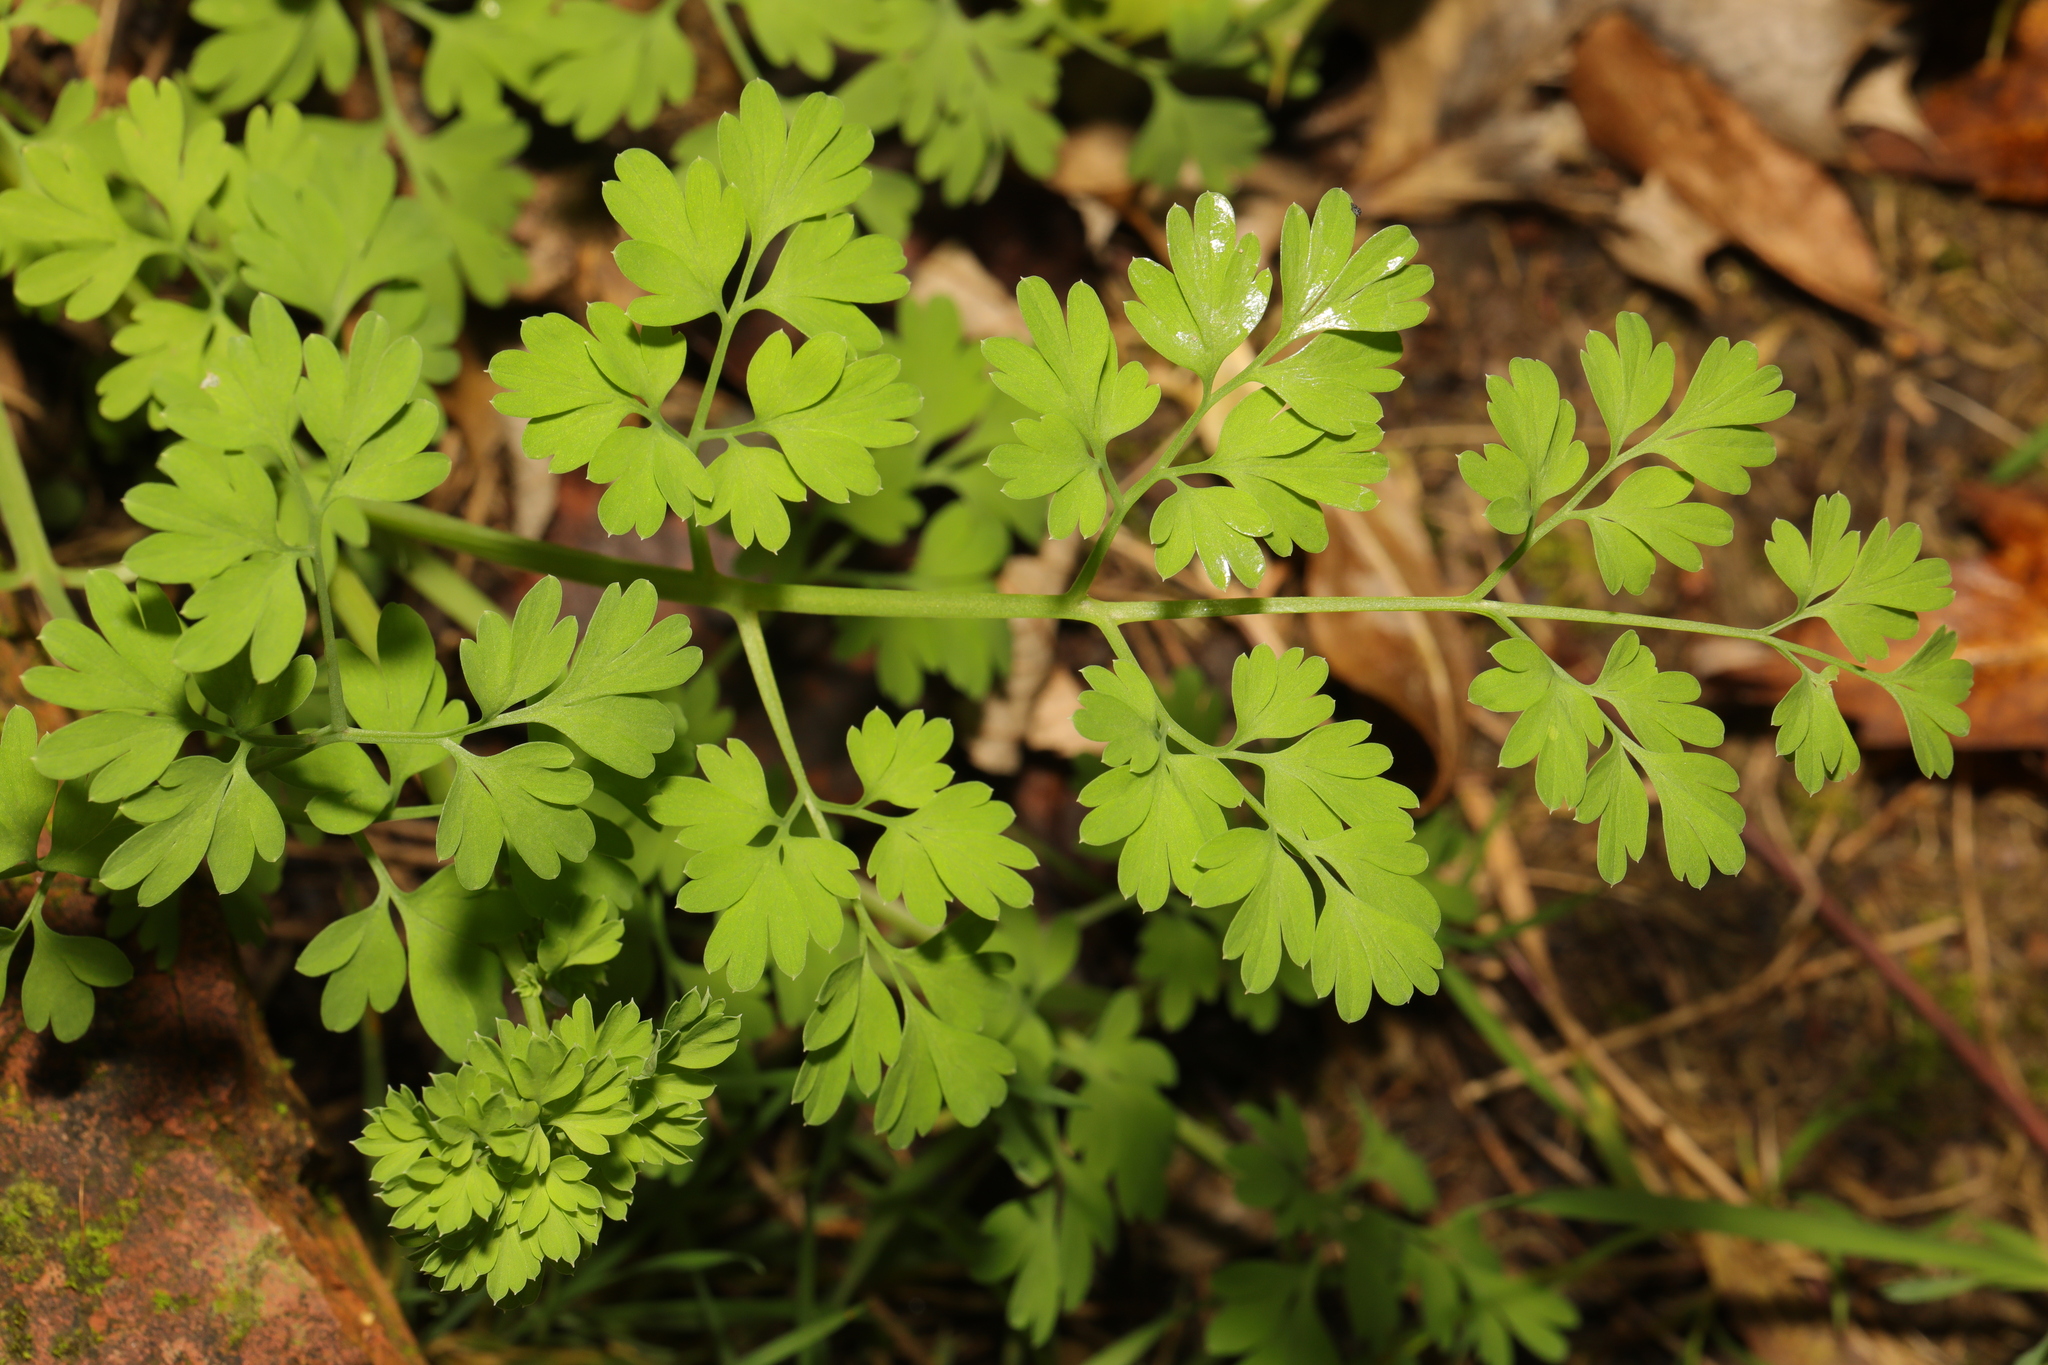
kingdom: Plantae
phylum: Tracheophyta
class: Magnoliopsida
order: Asterales
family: Asteraceae
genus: Tanacetum
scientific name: Tanacetum parthenium
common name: Feverfew
